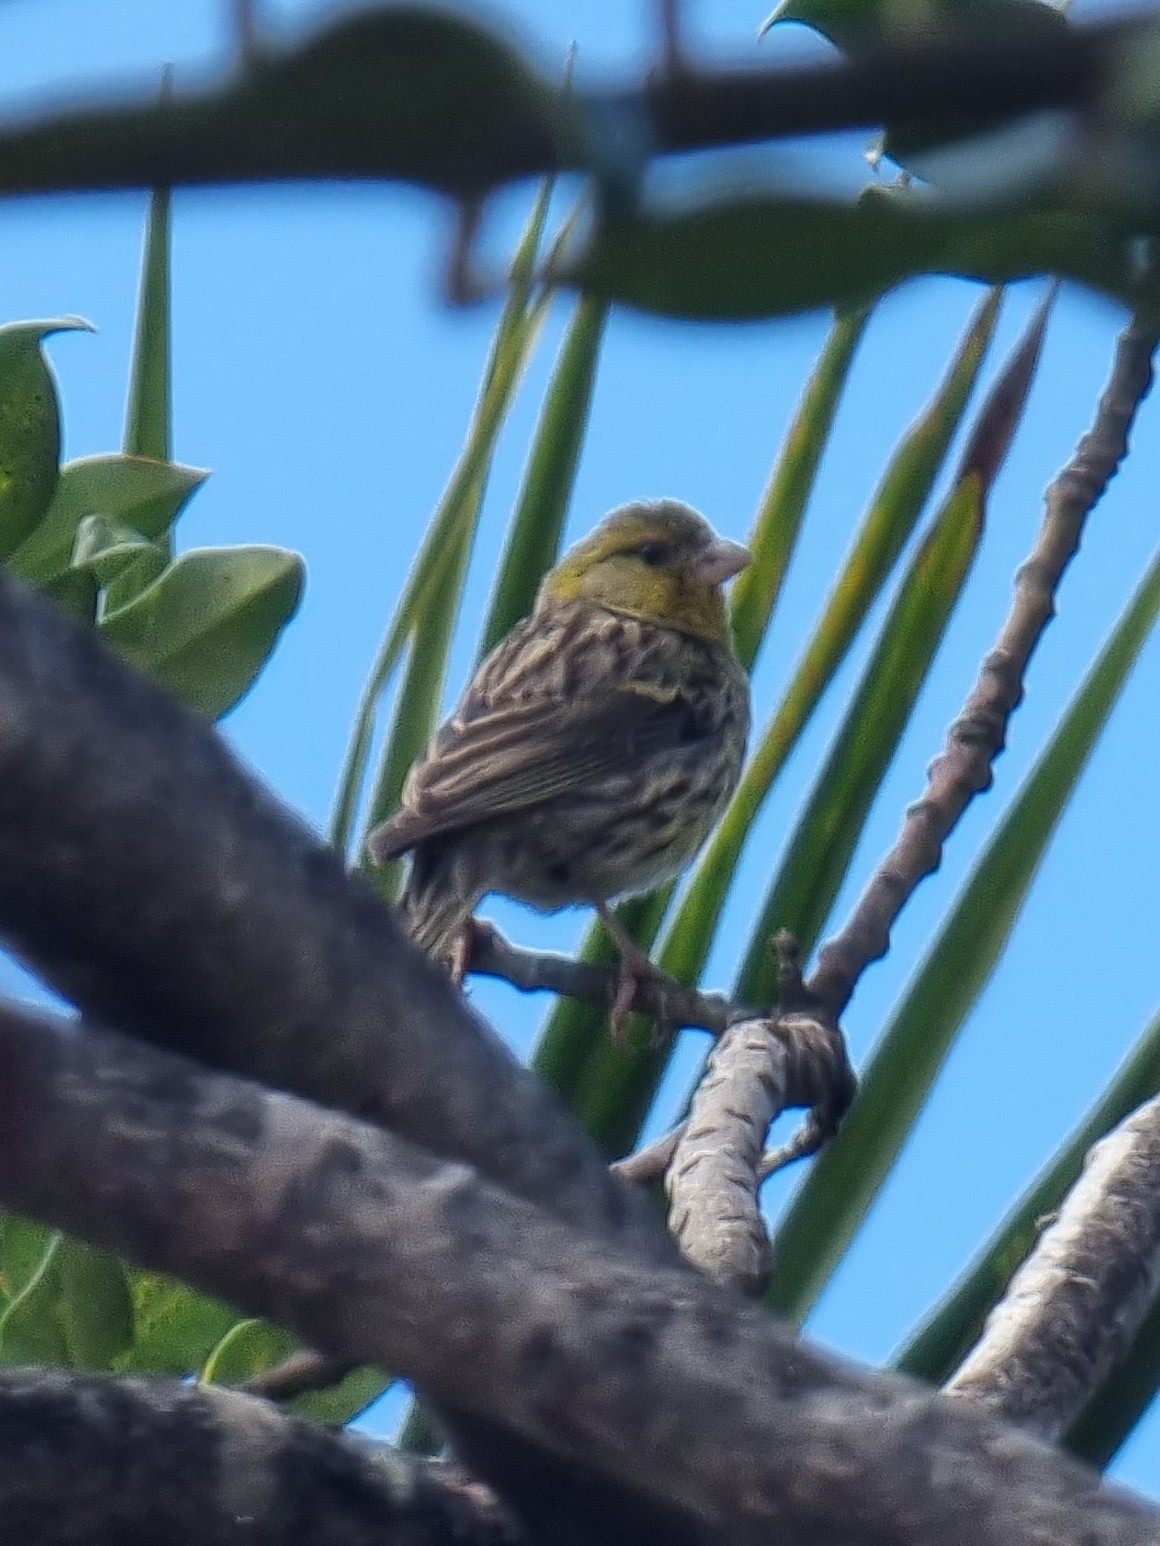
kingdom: Animalia
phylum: Chordata
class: Aves
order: Passeriformes
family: Fringillidae
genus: Serinus
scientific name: Serinus canaria
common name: Atlantic canary
